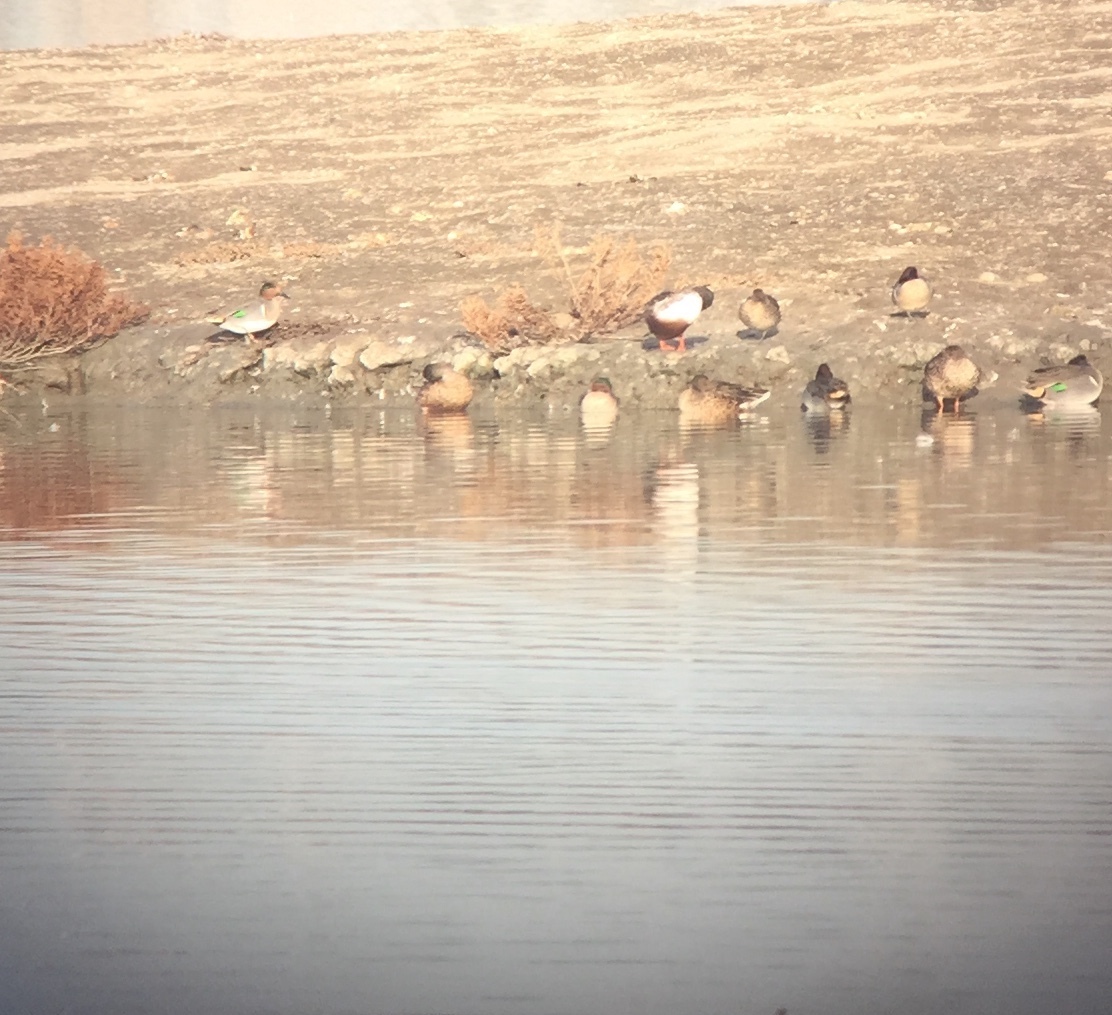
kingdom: Animalia
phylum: Chordata
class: Aves
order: Anseriformes
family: Anatidae
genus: Anas
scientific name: Anas crecca
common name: Eurasian teal
